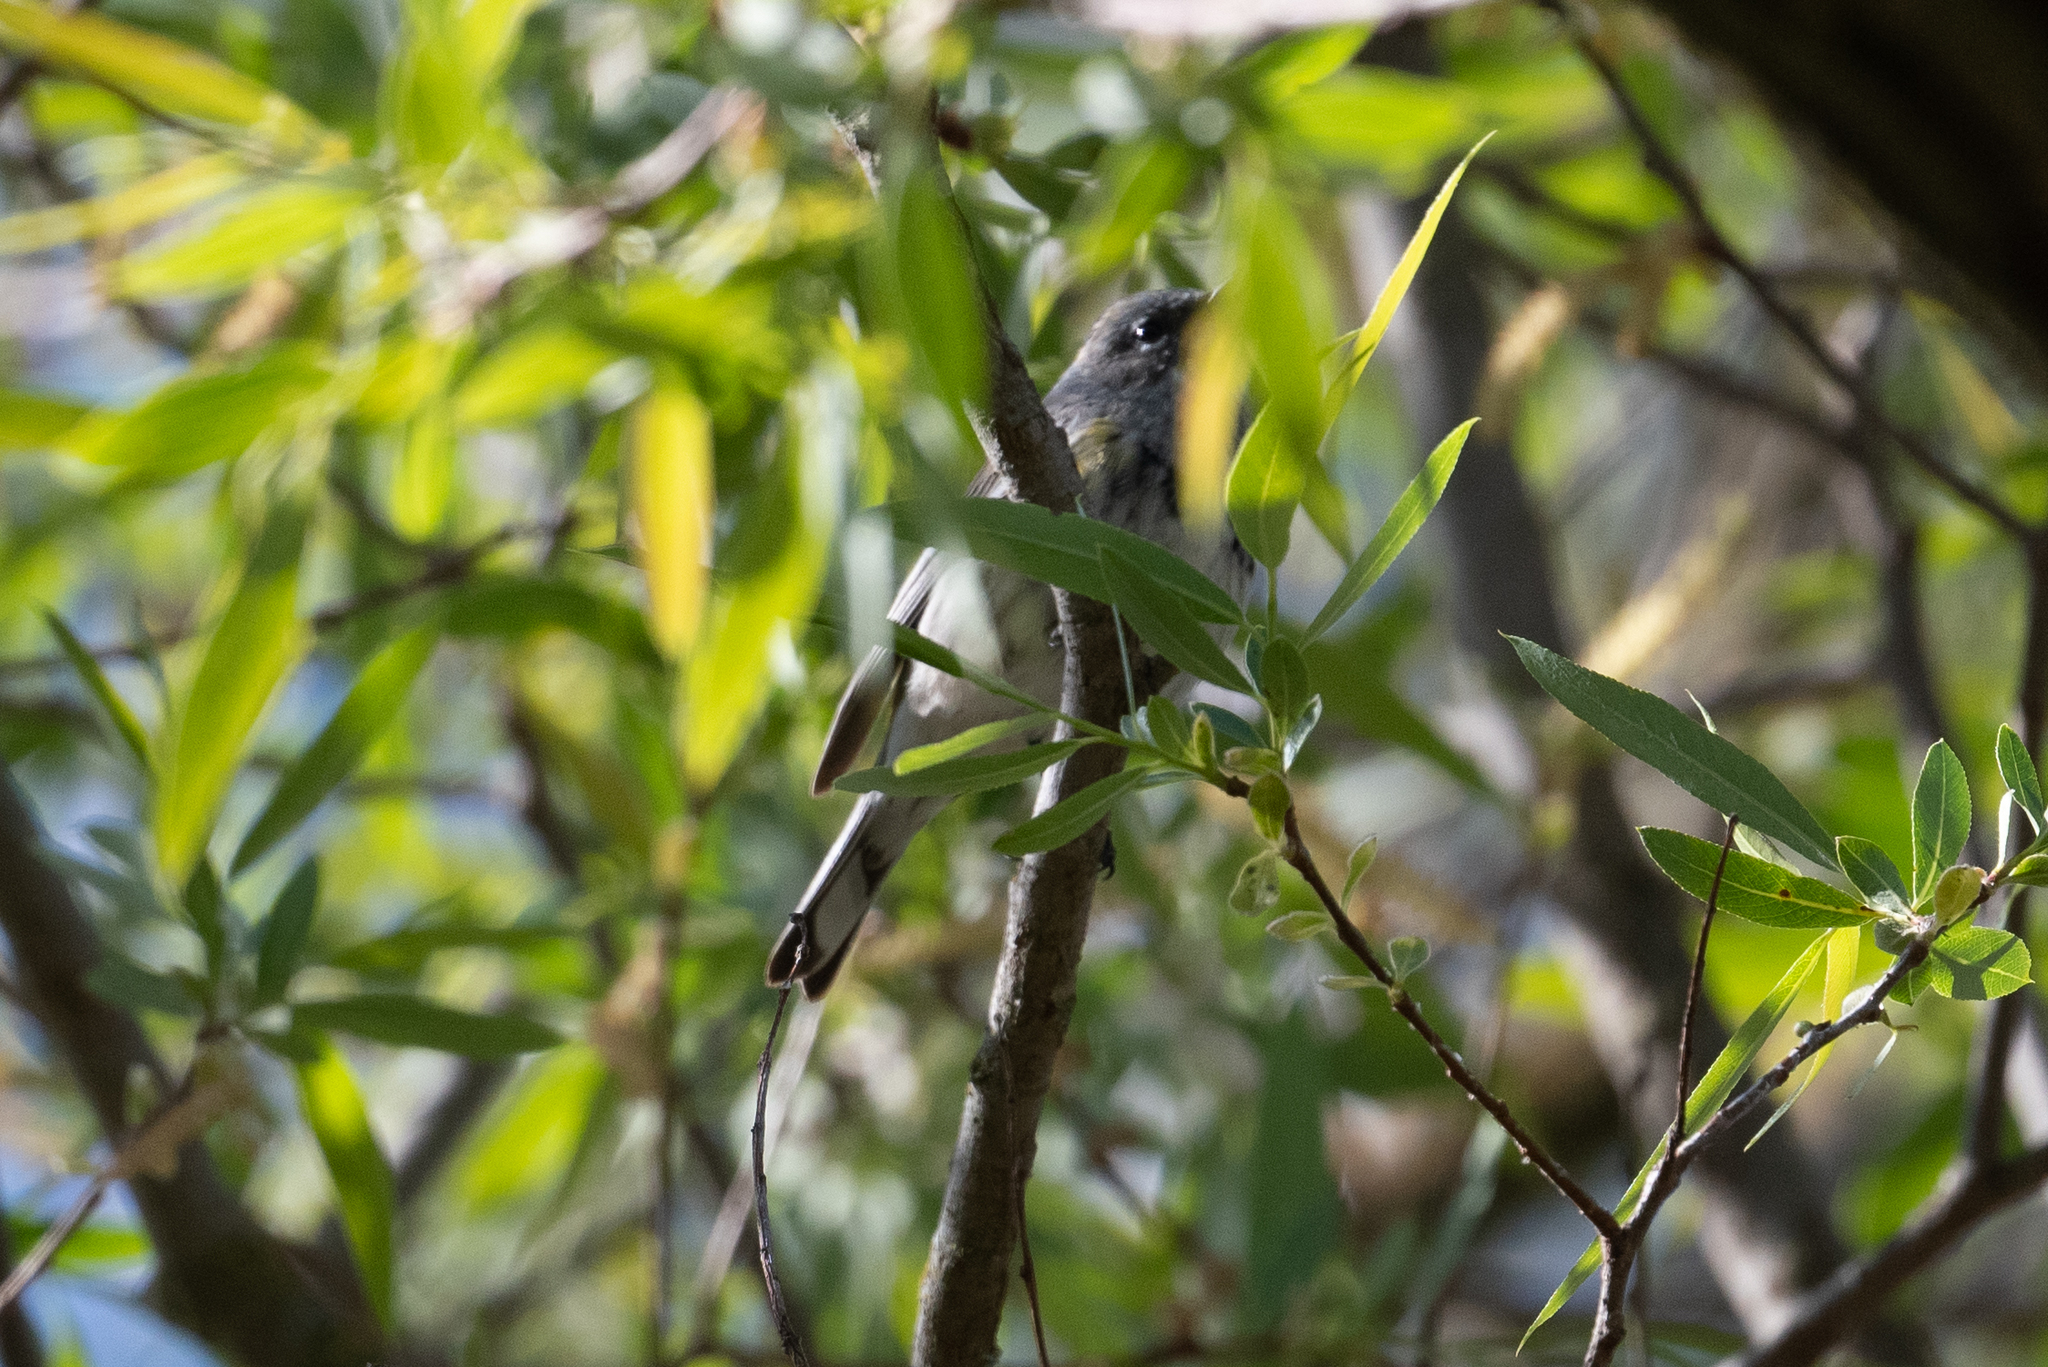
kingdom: Animalia
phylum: Chordata
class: Aves
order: Passeriformes
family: Parulidae
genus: Setophaga
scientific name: Setophaga coronata
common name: Myrtle warbler
